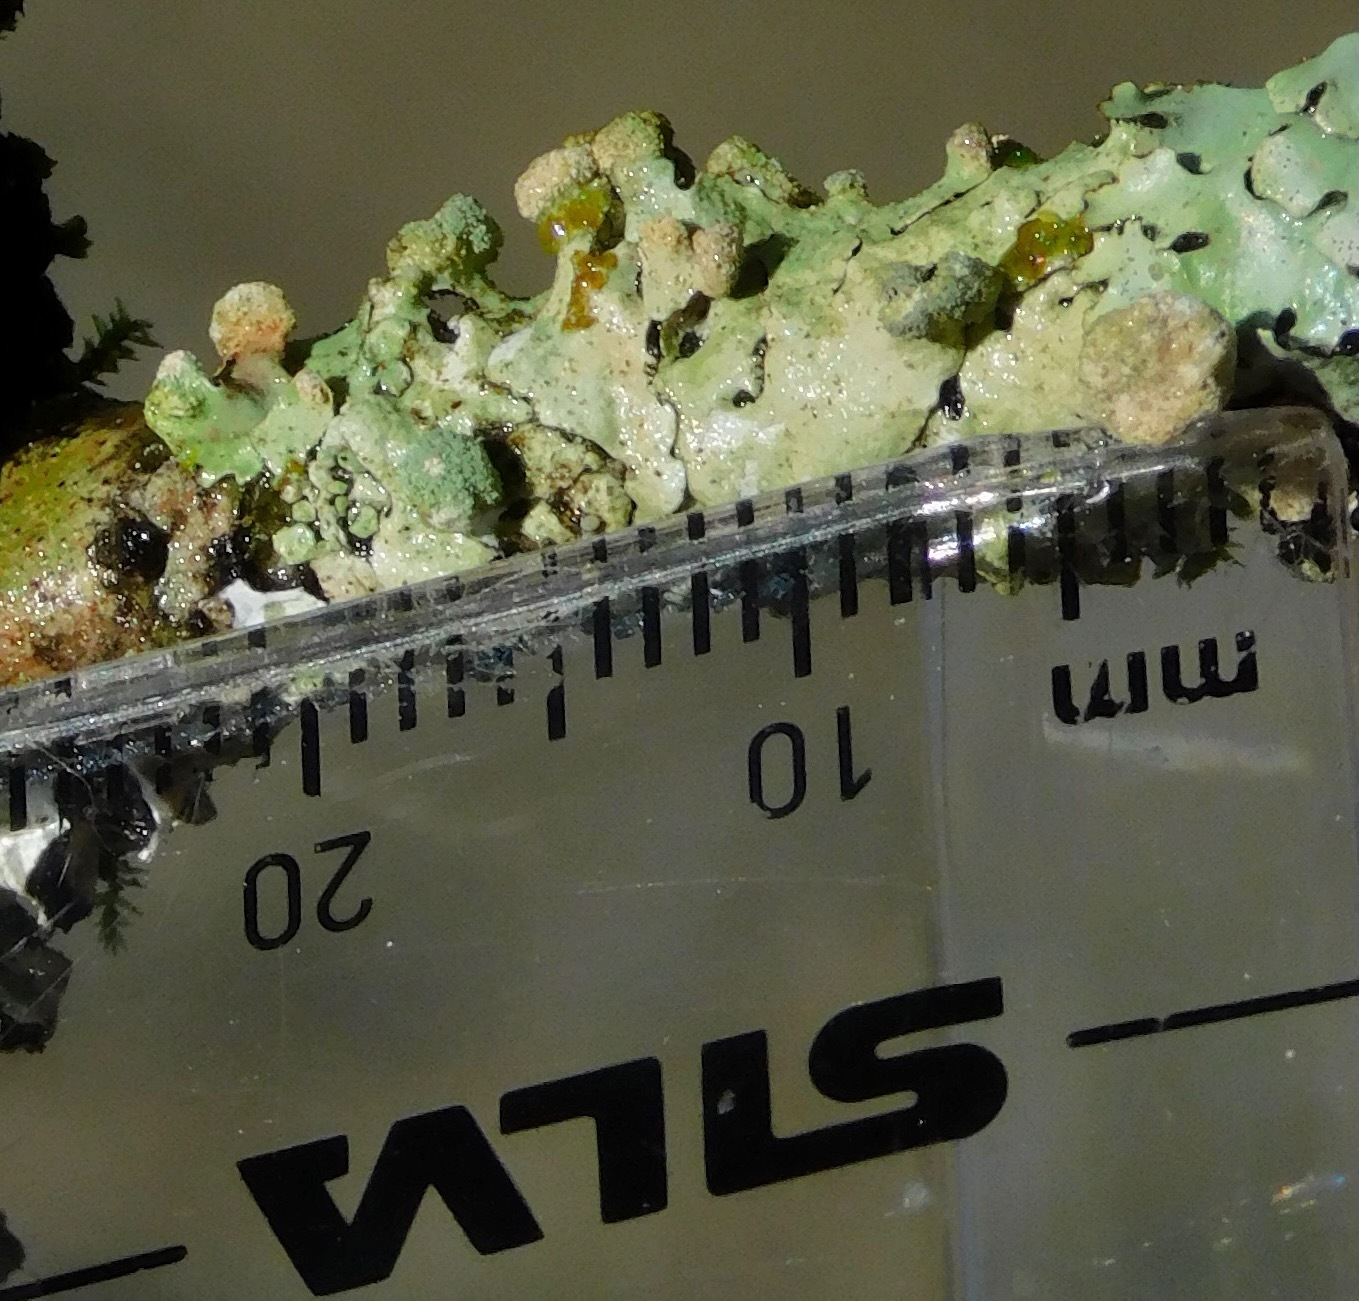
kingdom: Fungi
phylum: Ascomycota
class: Lecanoromycetes
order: Lecanorales
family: Parmeliaceae
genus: Myelochroa
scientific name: Myelochroa metarevoluta
